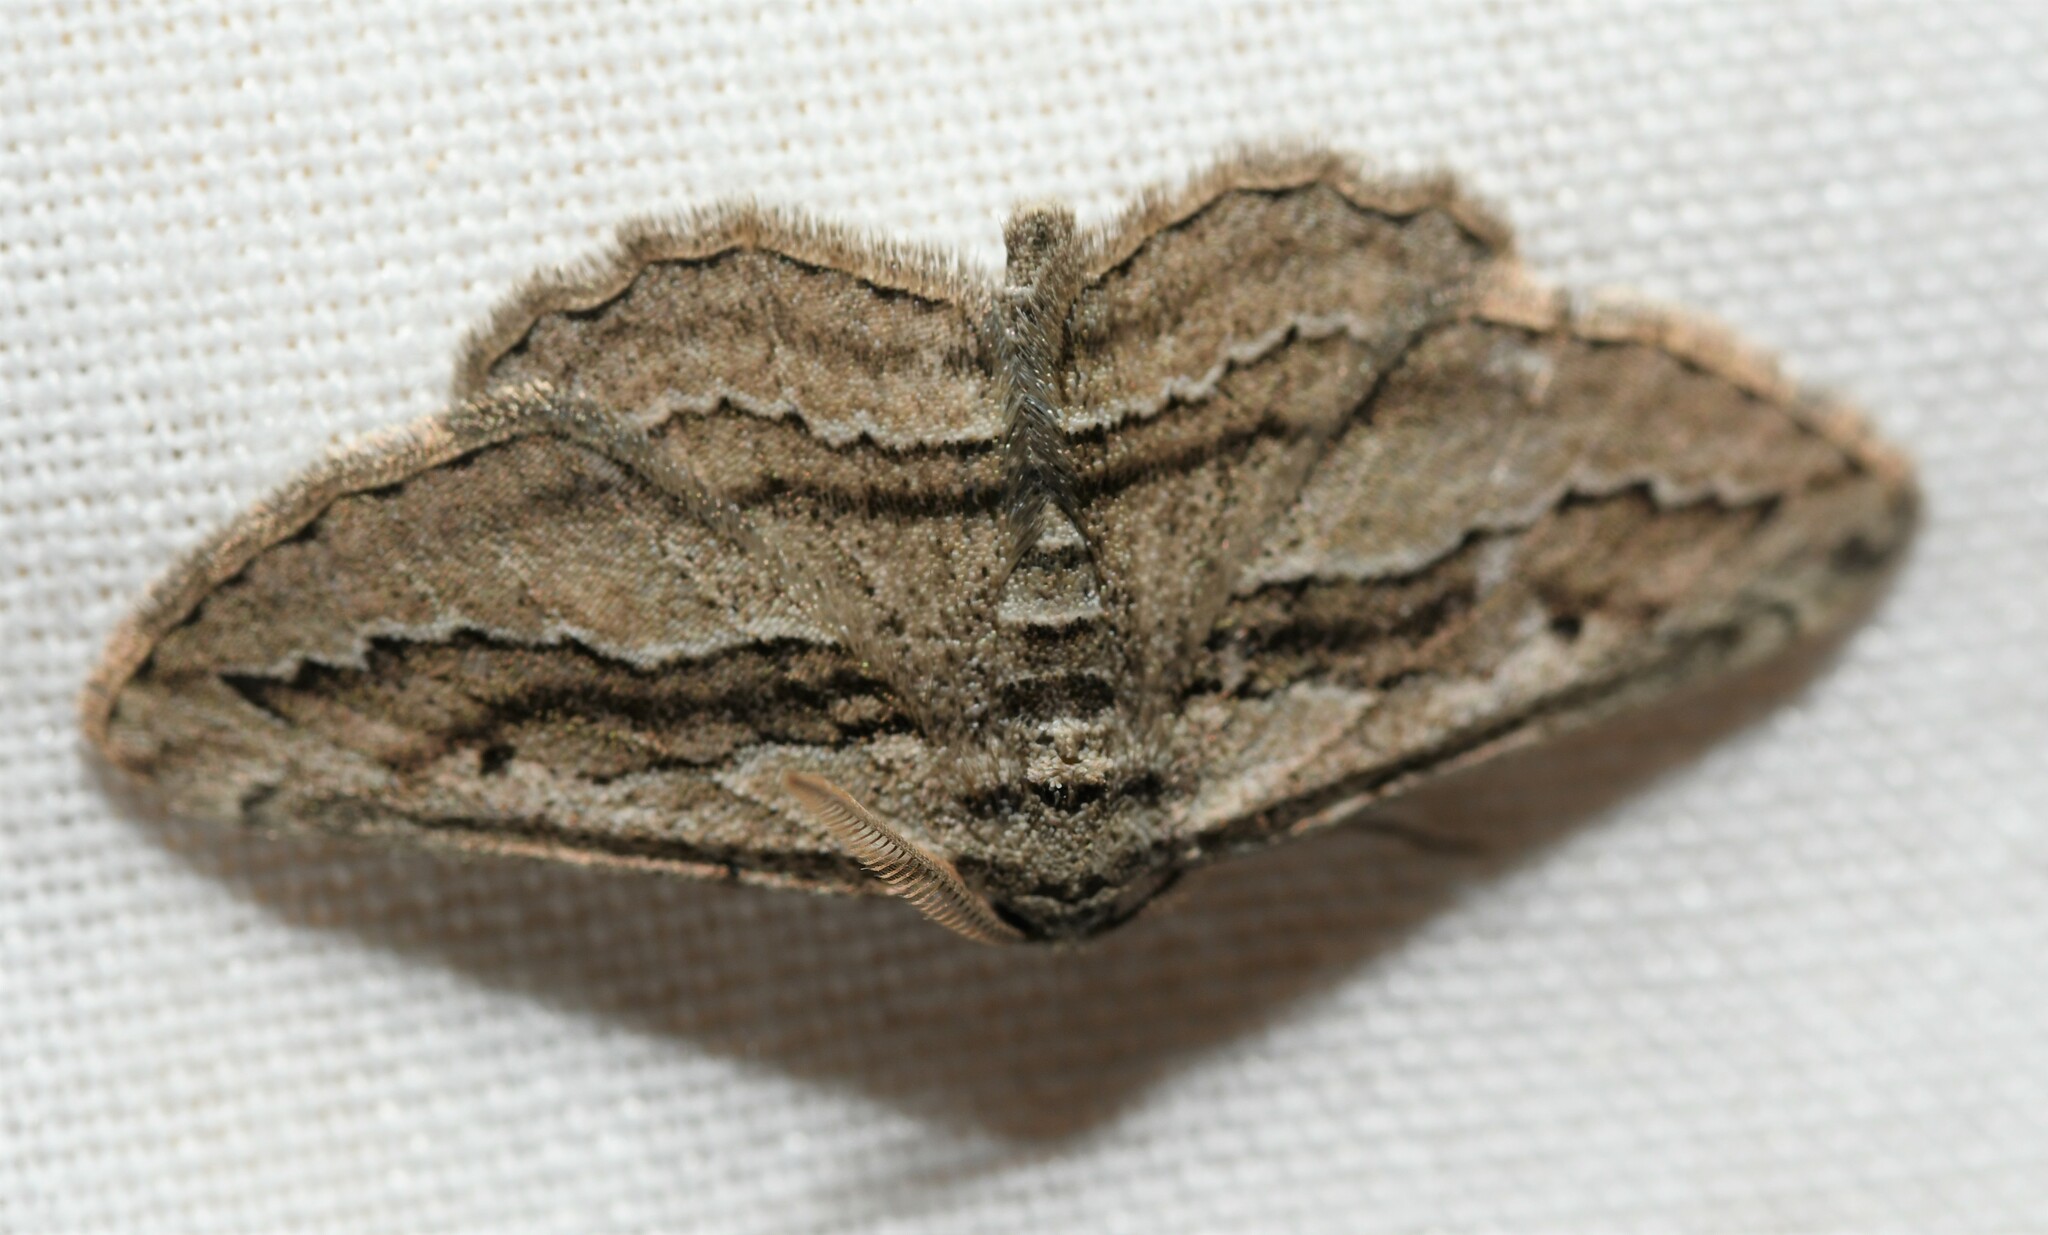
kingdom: Animalia
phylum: Arthropoda
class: Insecta
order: Lepidoptera
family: Geometridae
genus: Ekboarmia
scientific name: Ekboarmia atlanticaria
